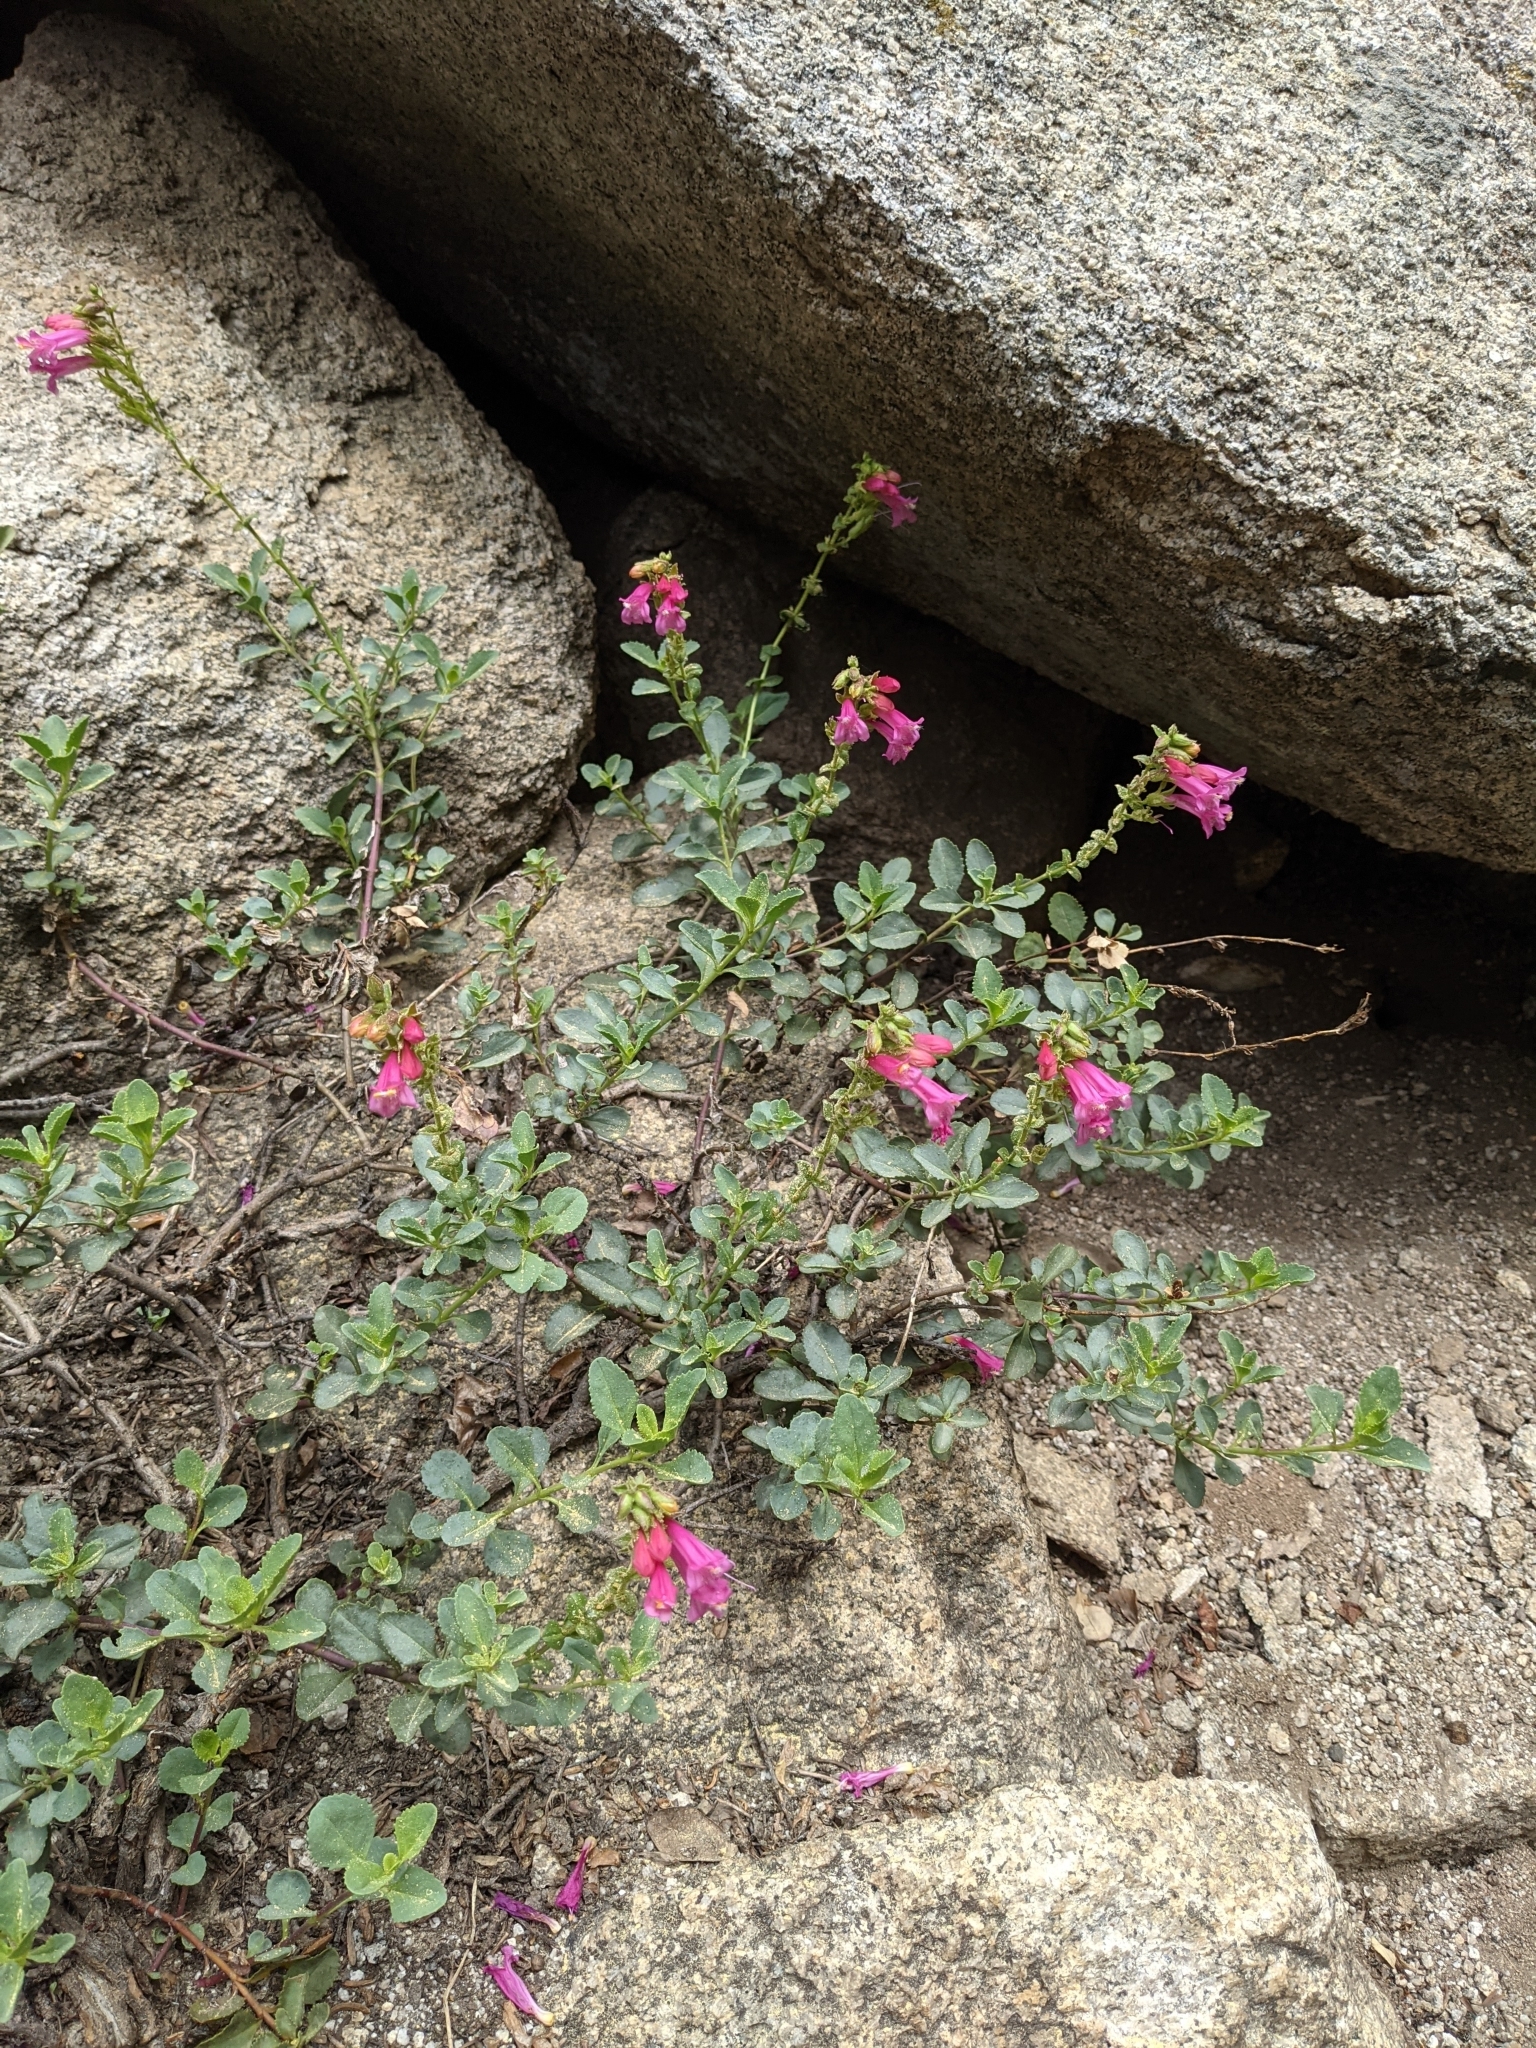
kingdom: Plantae
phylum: Tracheophyta
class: Magnoliopsida
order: Lamiales
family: Plantaginaceae
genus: Penstemon
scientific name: Penstemon newberryi
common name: Mountain-pride
